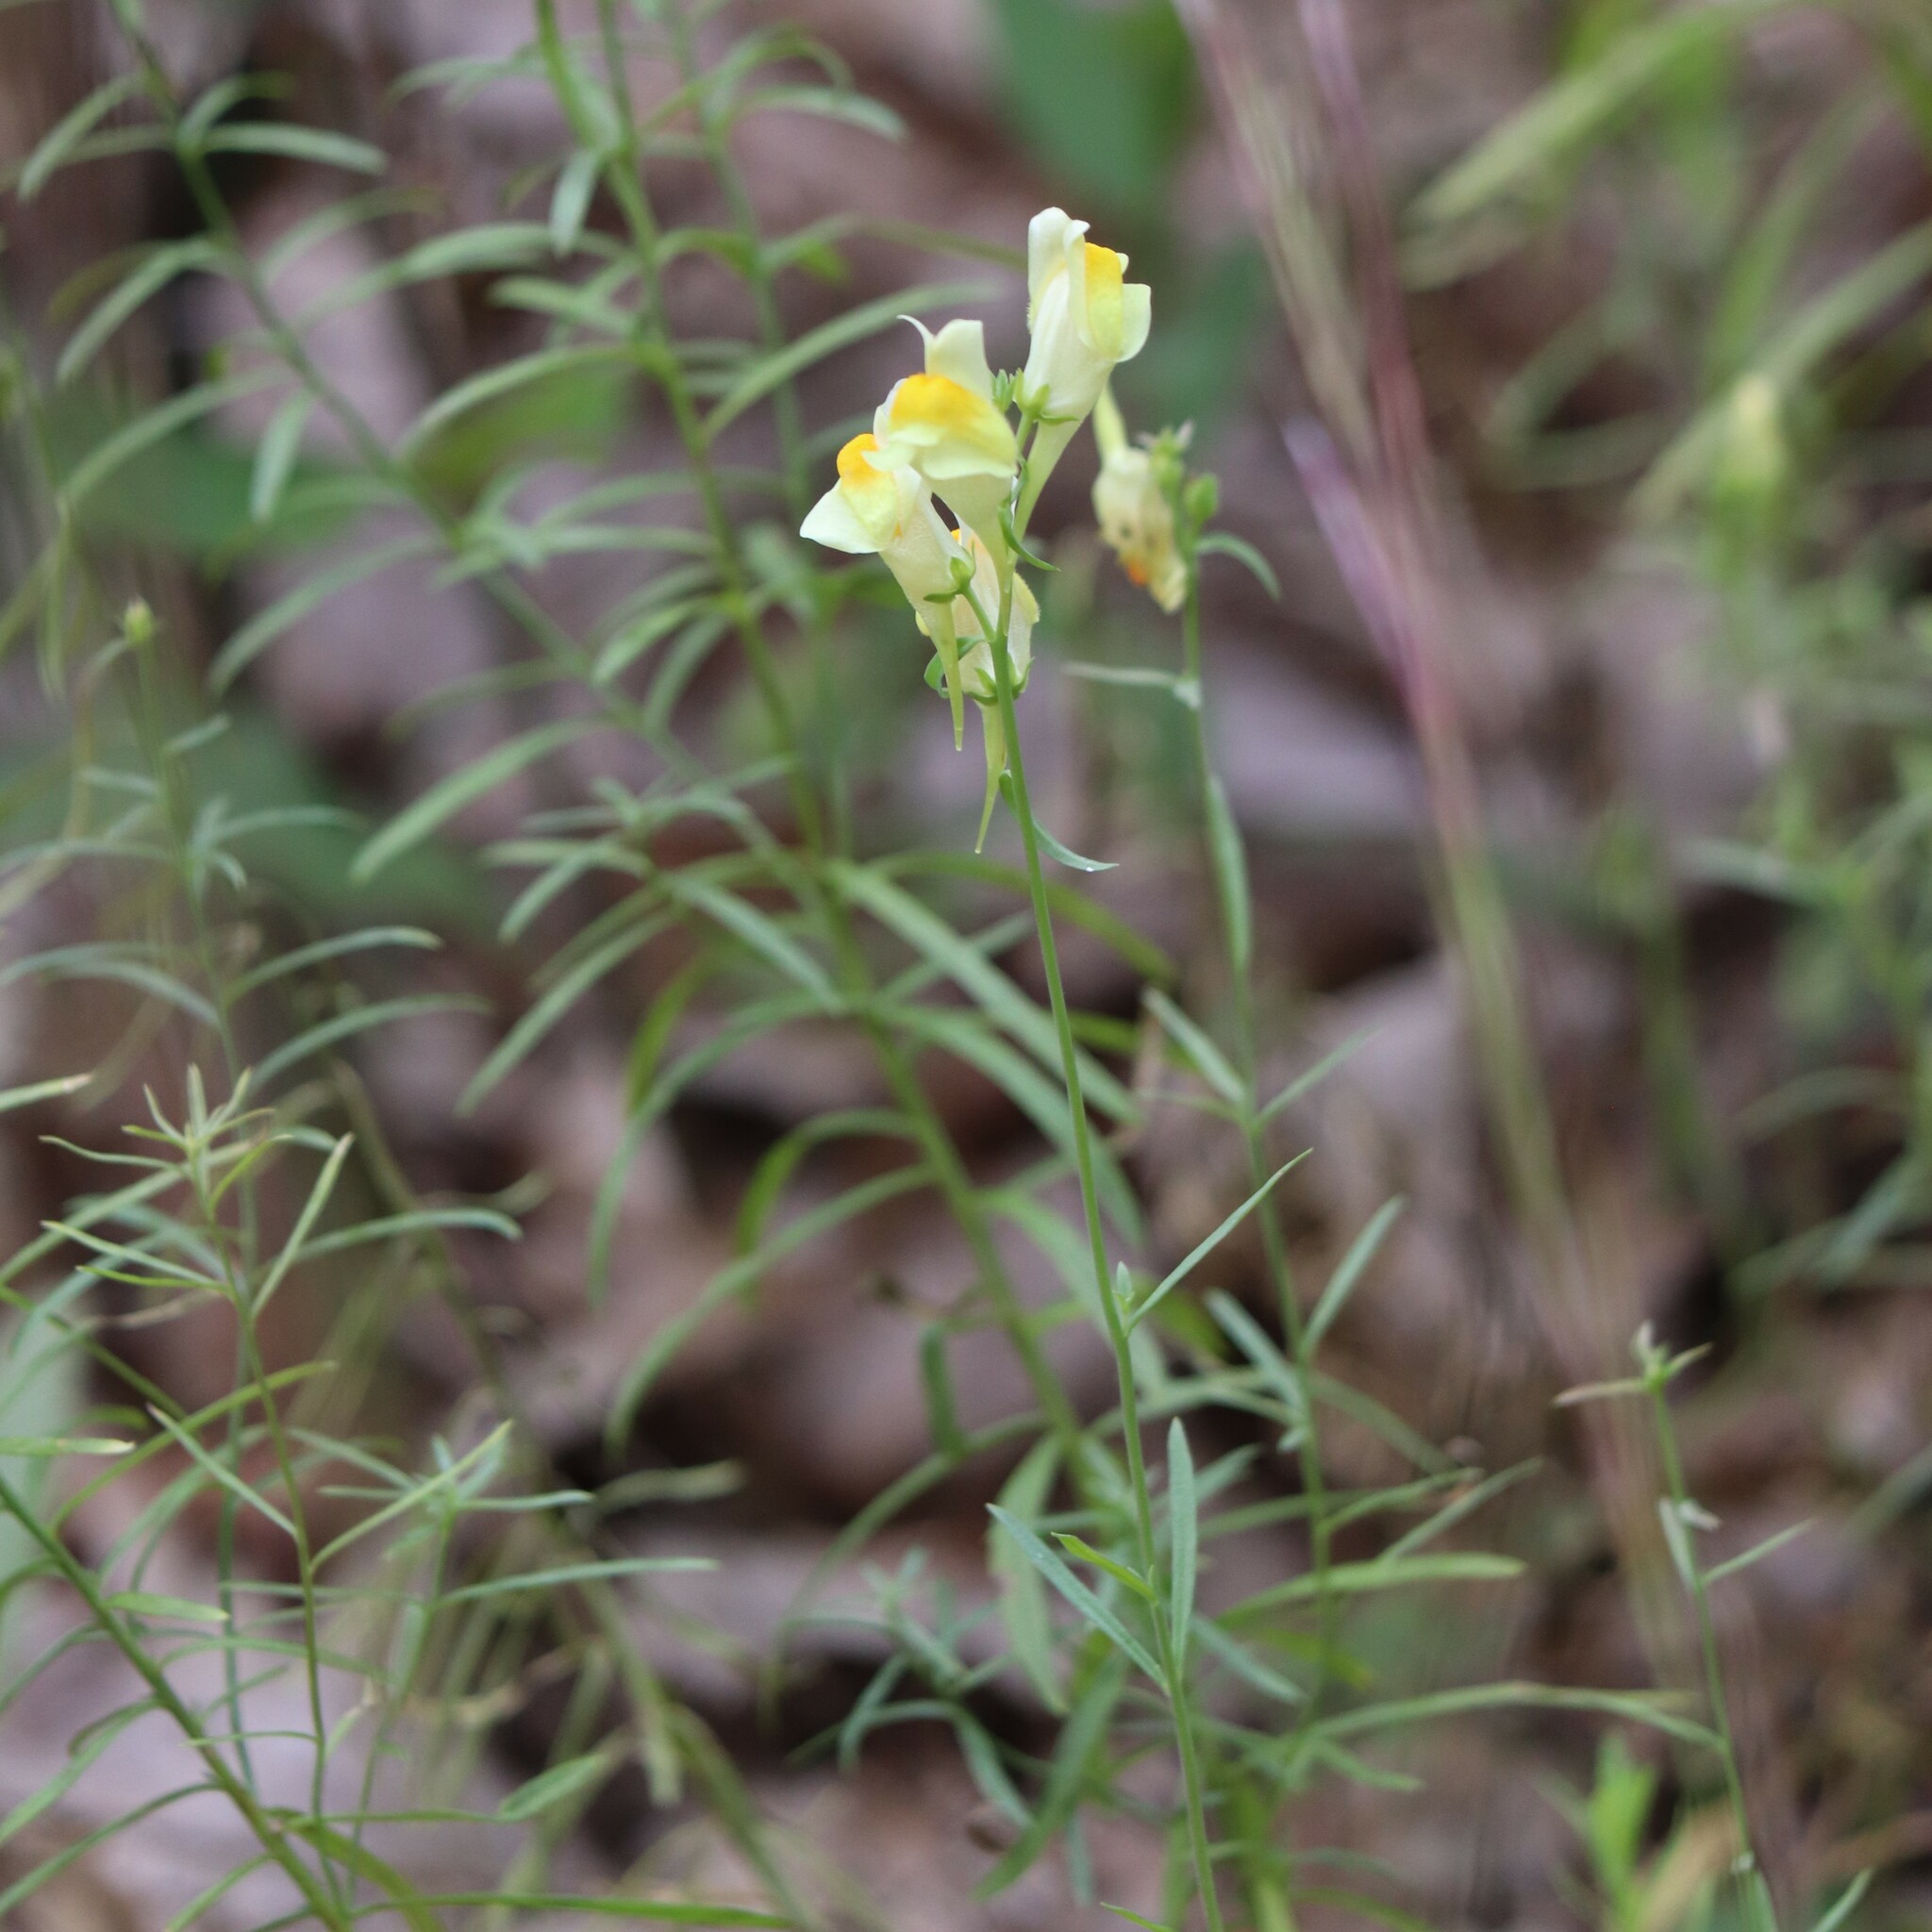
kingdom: Plantae
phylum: Tracheophyta
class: Magnoliopsida
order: Lamiales
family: Plantaginaceae
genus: Linaria
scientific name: Linaria vulgaris
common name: Butter and eggs
